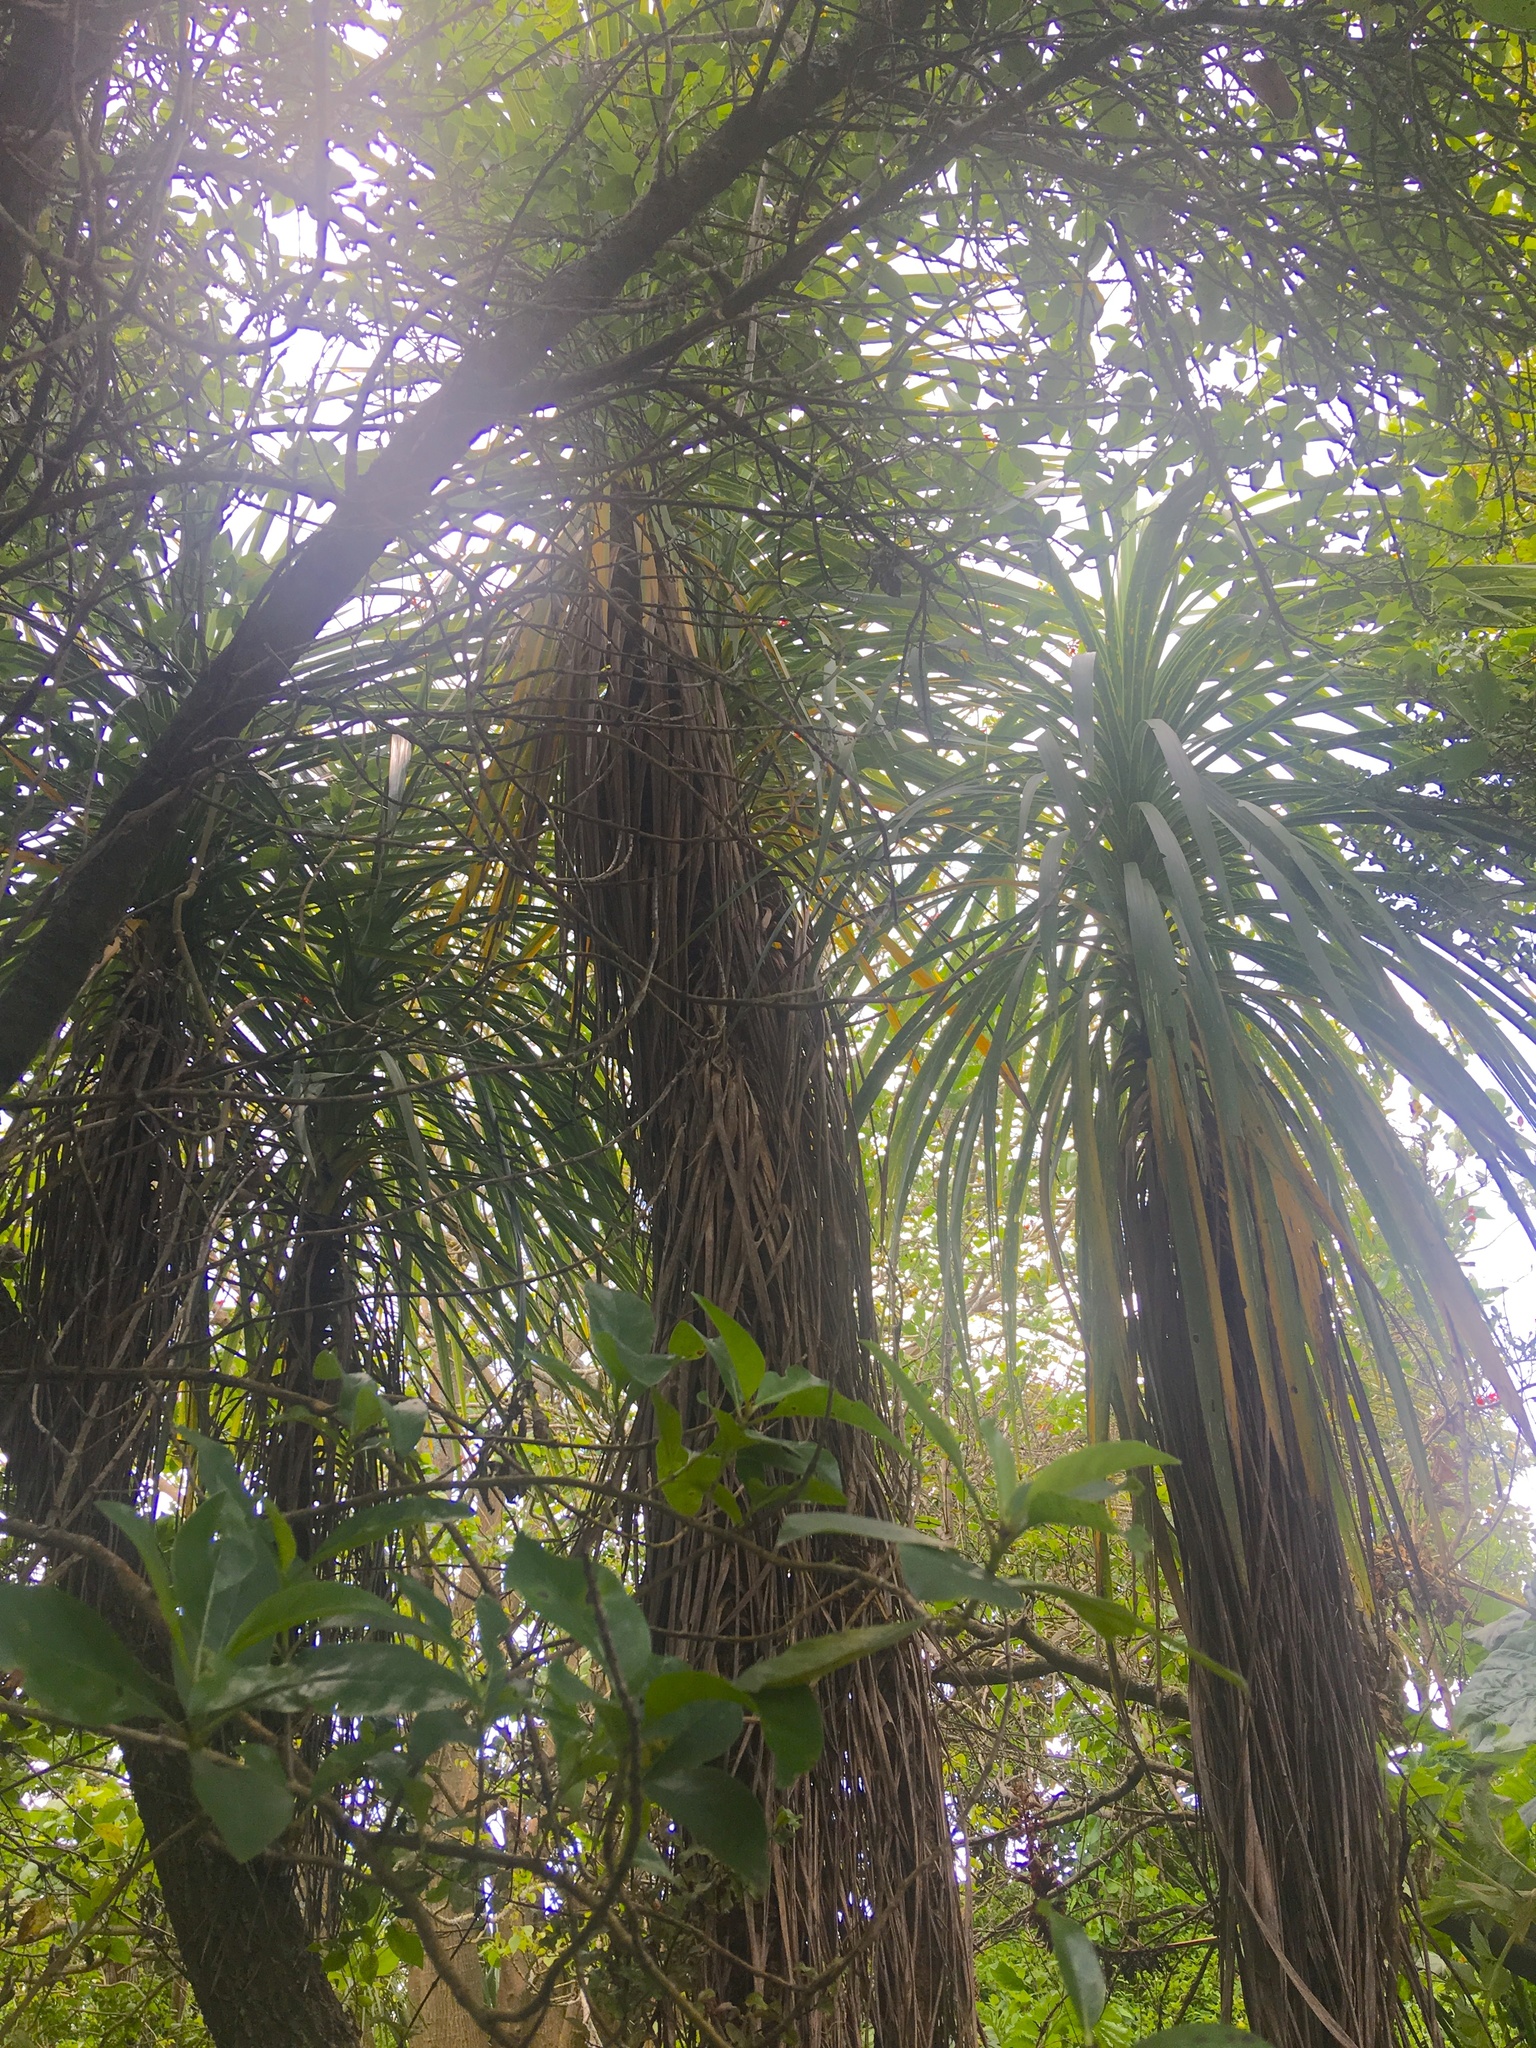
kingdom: Plantae
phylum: Tracheophyta
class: Liliopsida
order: Asparagales
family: Asparagaceae
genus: Cordyline
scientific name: Cordyline australis
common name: Cabbage-palm
